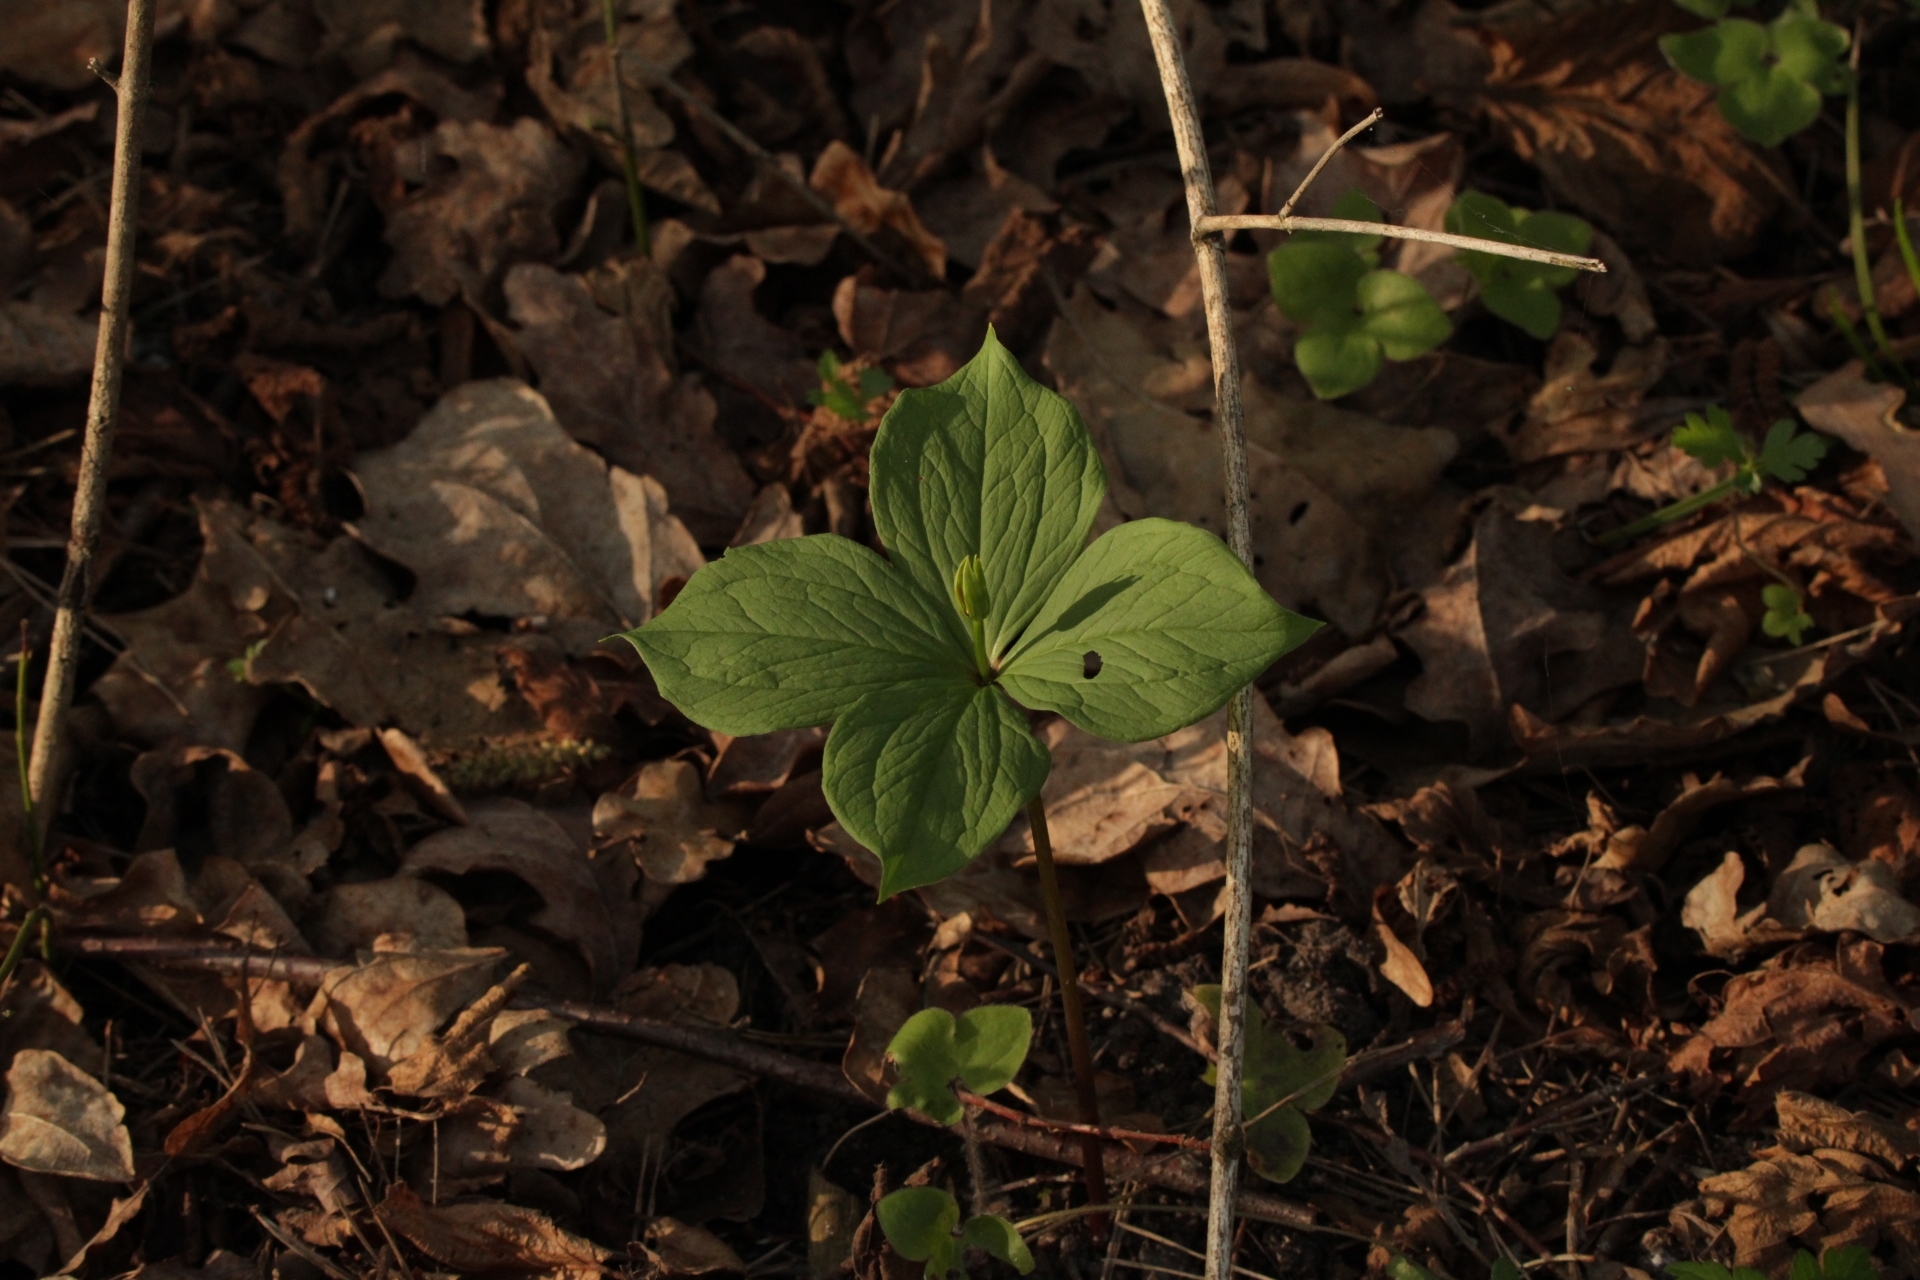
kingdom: Plantae
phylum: Tracheophyta
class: Liliopsida
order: Liliales
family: Melanthiaceae
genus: Paris
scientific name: Paris quadrifolia
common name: Herb-paris
